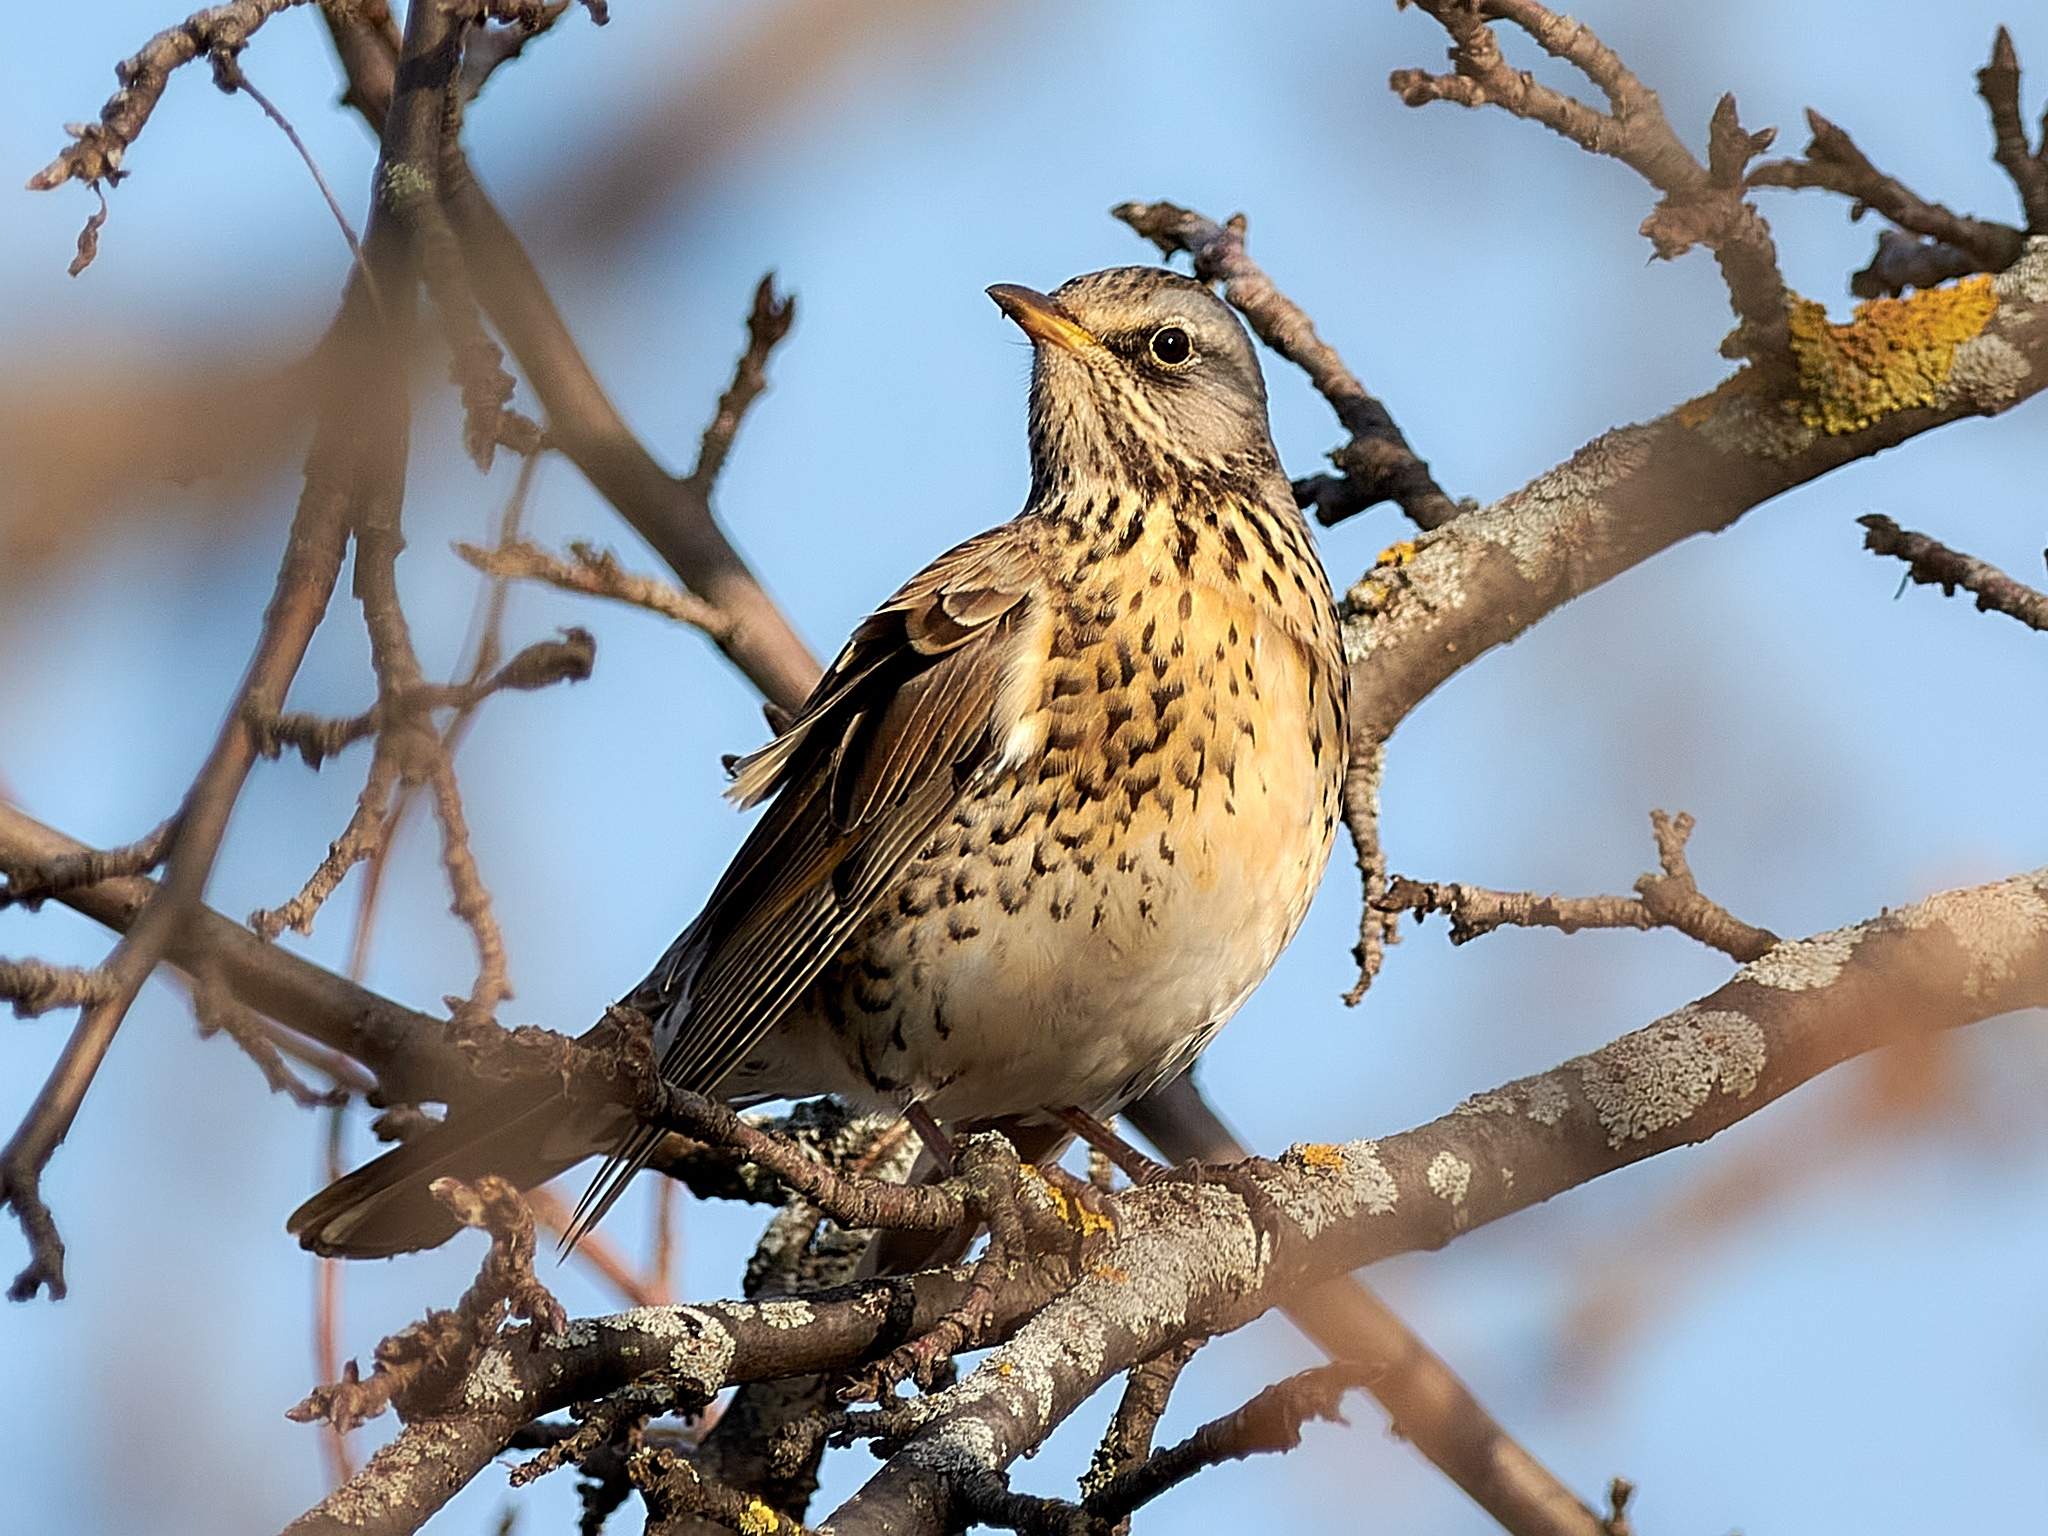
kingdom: Animalia
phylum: Chordata
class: Aves
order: Passeriformes
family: Turdidae
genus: Turdus
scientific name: Turdus pilaris
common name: Fieldfare
